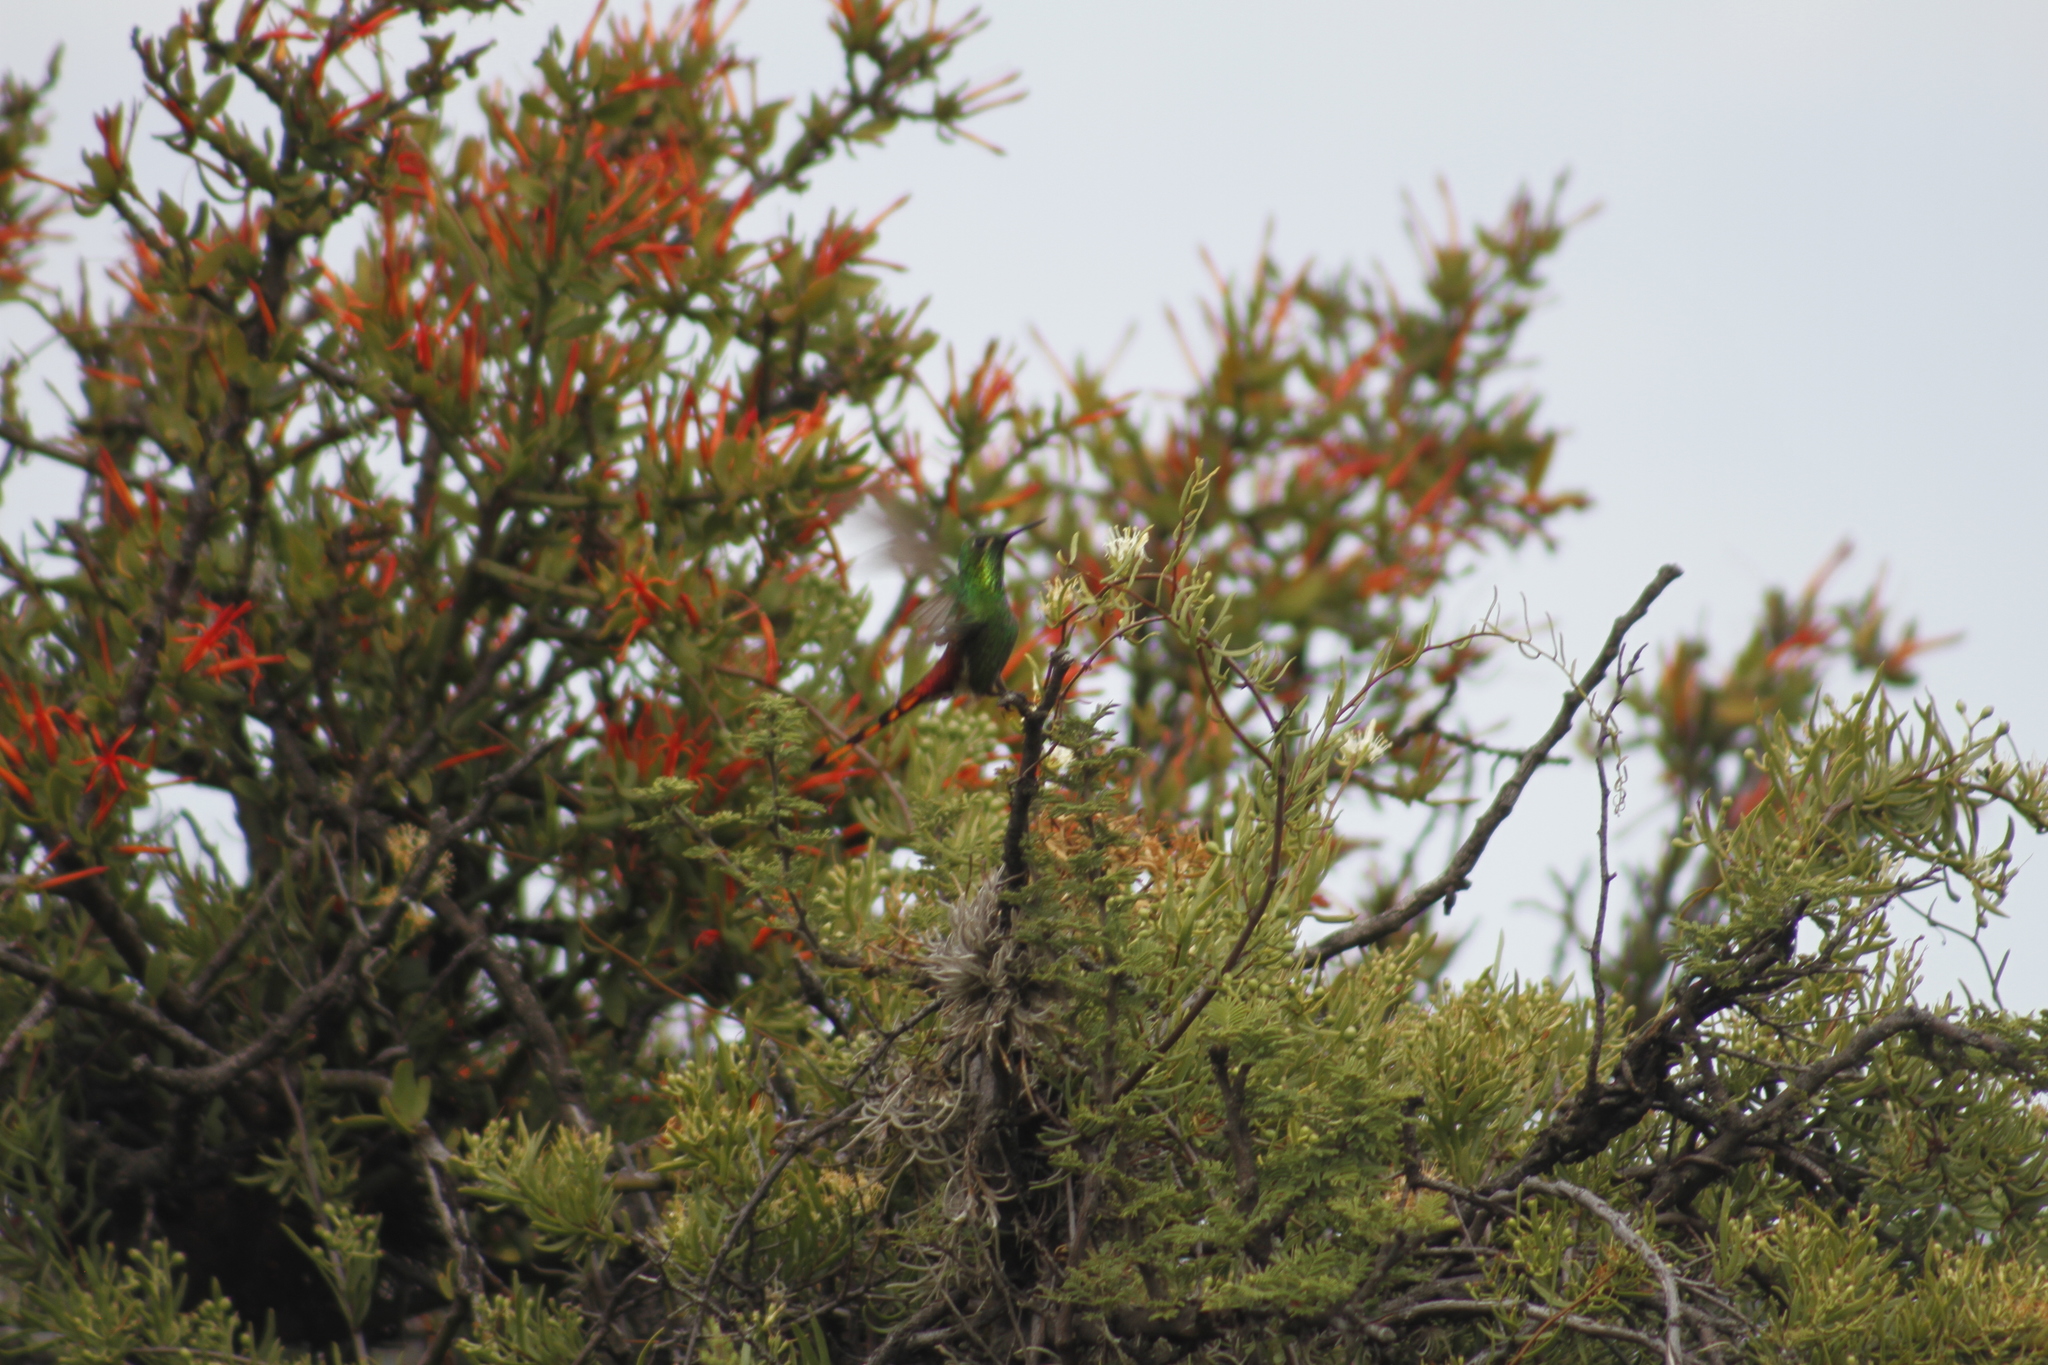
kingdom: Animalia
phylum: Chordata
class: Aves
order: Apodiformes
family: Trochilidae
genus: Sappho
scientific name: Sappho sparganurus
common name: Red-tailed comet
